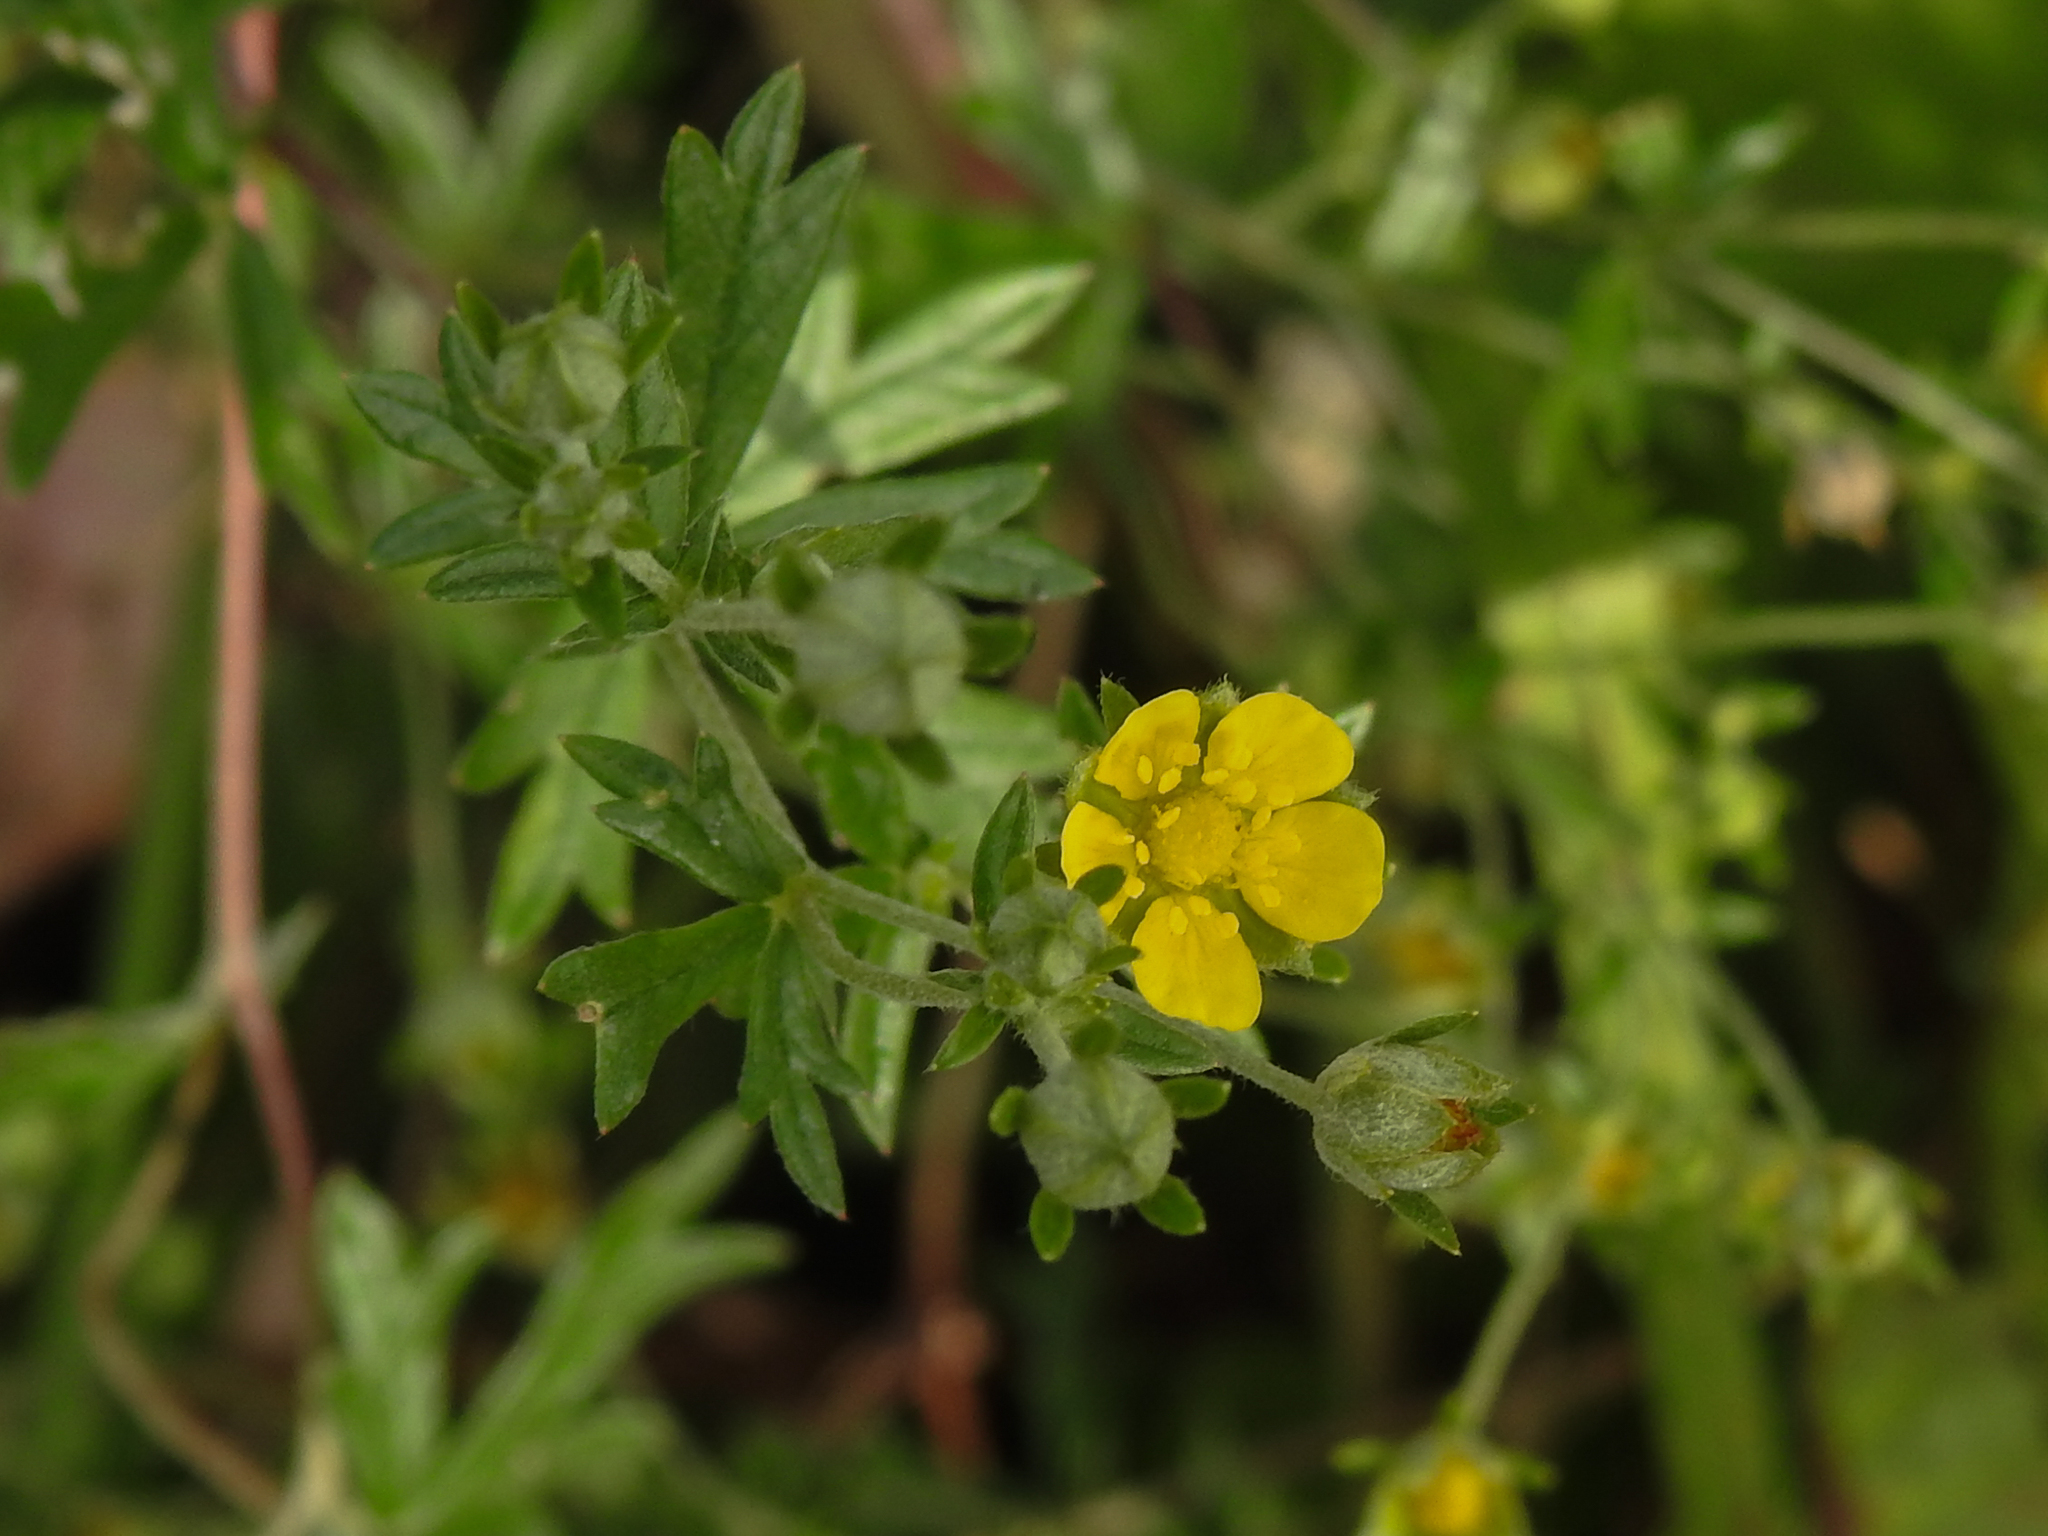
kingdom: Plantae
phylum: Tracheophyta
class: Magnoliopsida
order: Rosales
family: Rosaceae
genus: Potentilla
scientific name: Potentilla argentea
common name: Hoary cinquefoil
